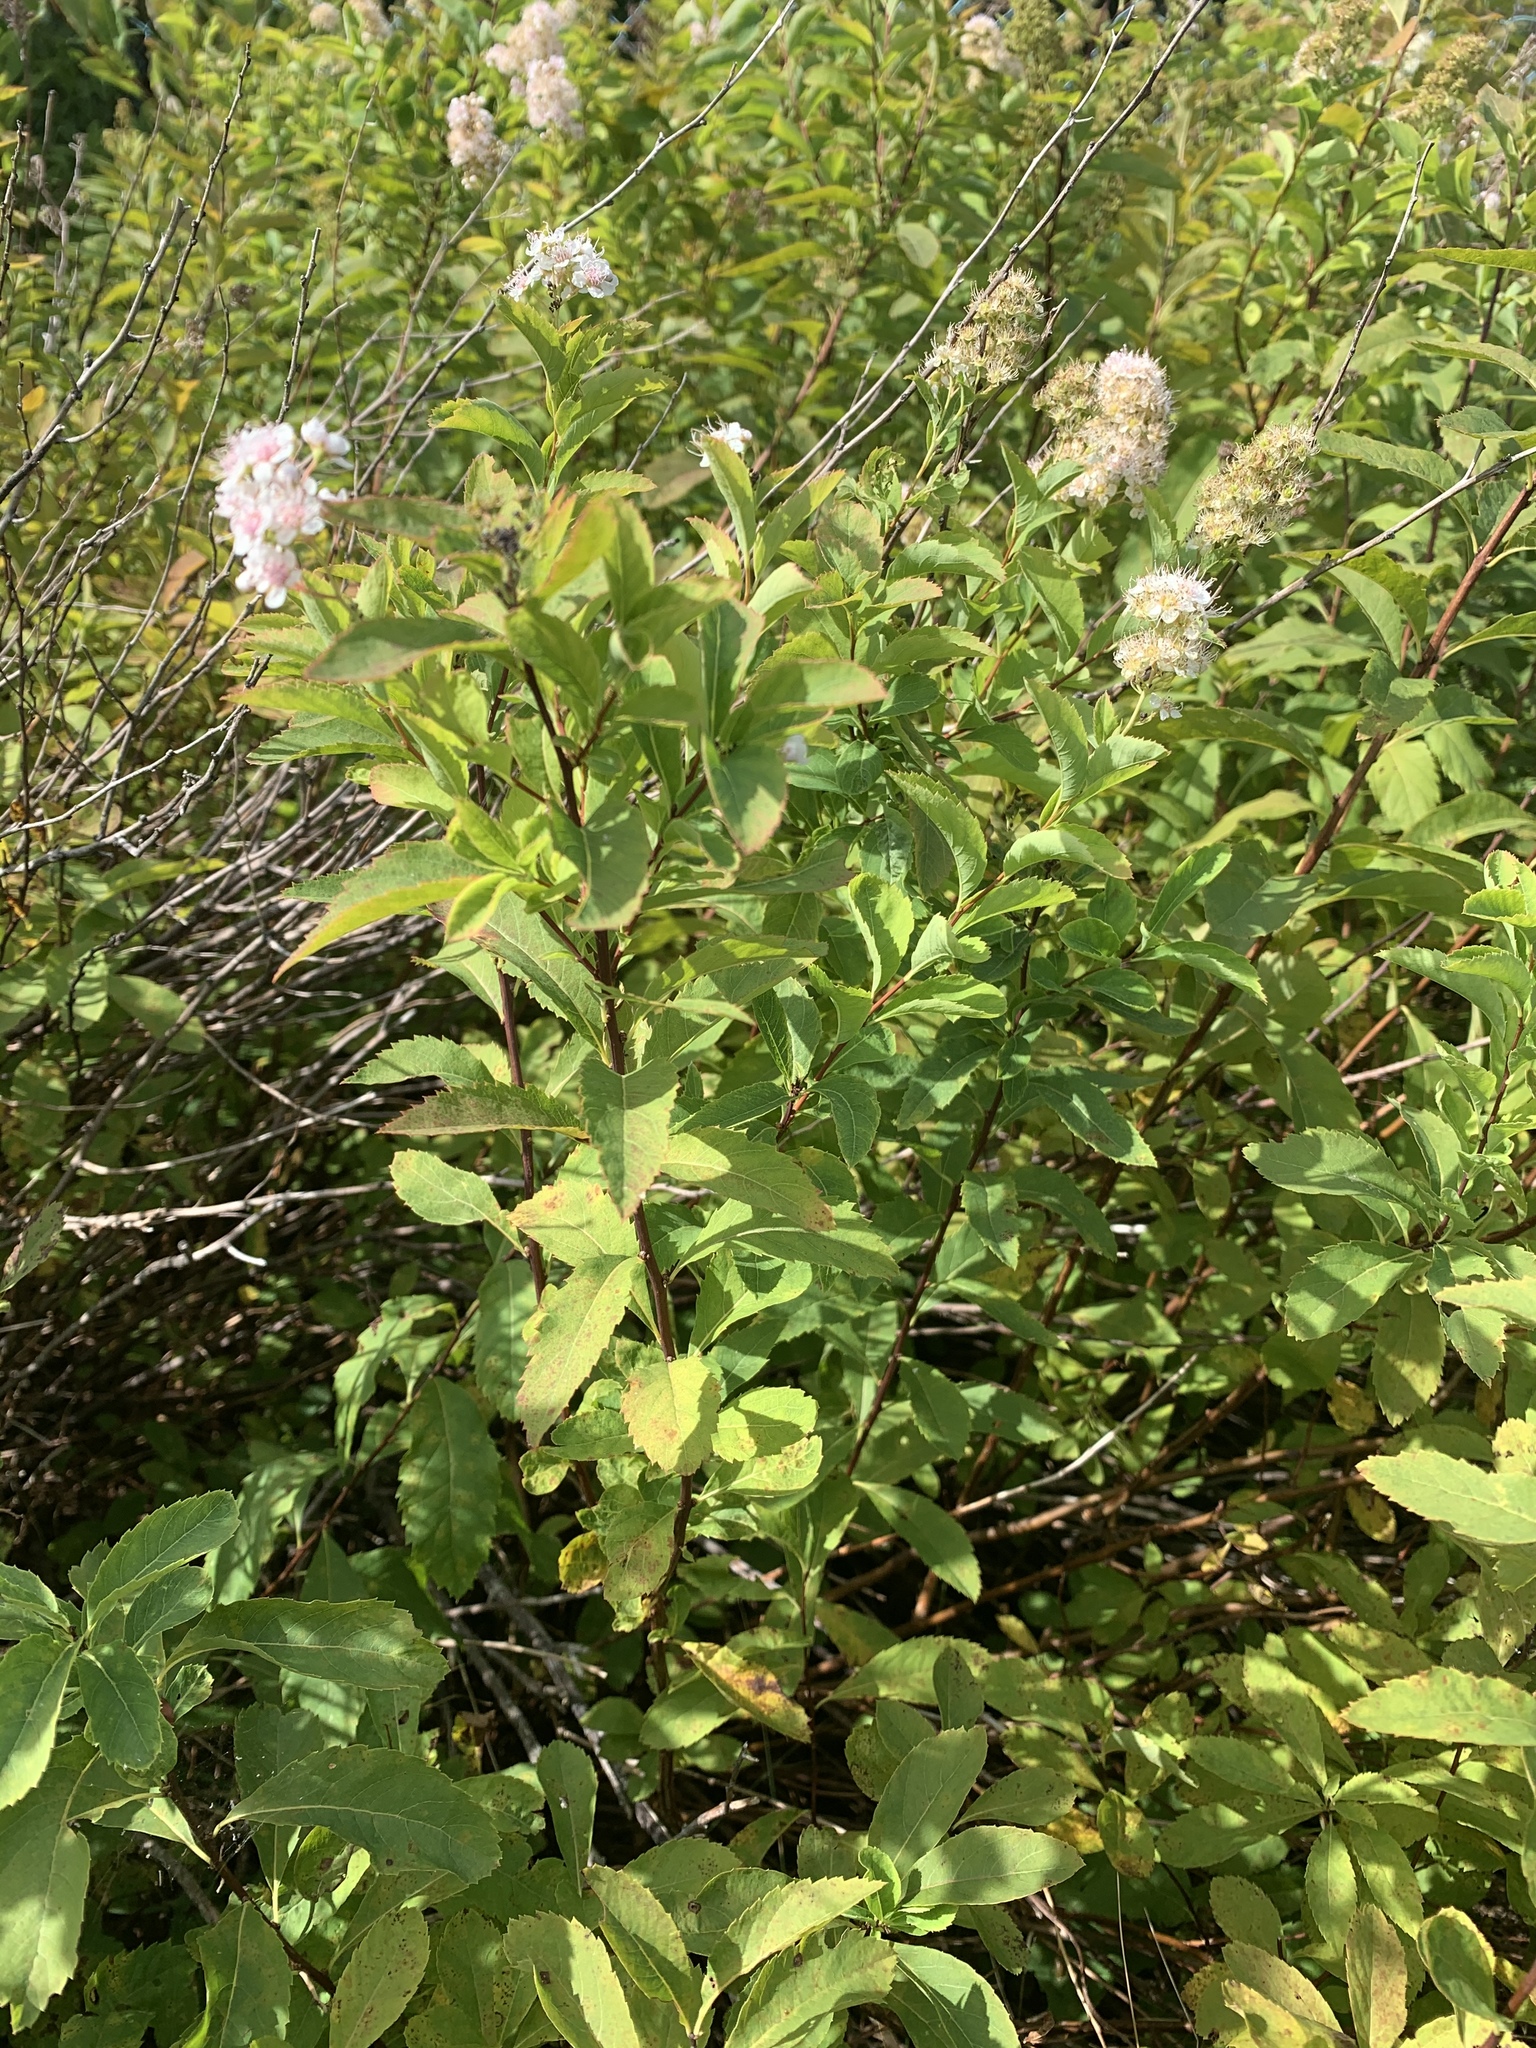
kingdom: Plantae
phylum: Tracheophyta
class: Magnoliopsida
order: Rosales
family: Rosaceae
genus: Spiraea
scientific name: Spiraea alba
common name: Pale bridewort
